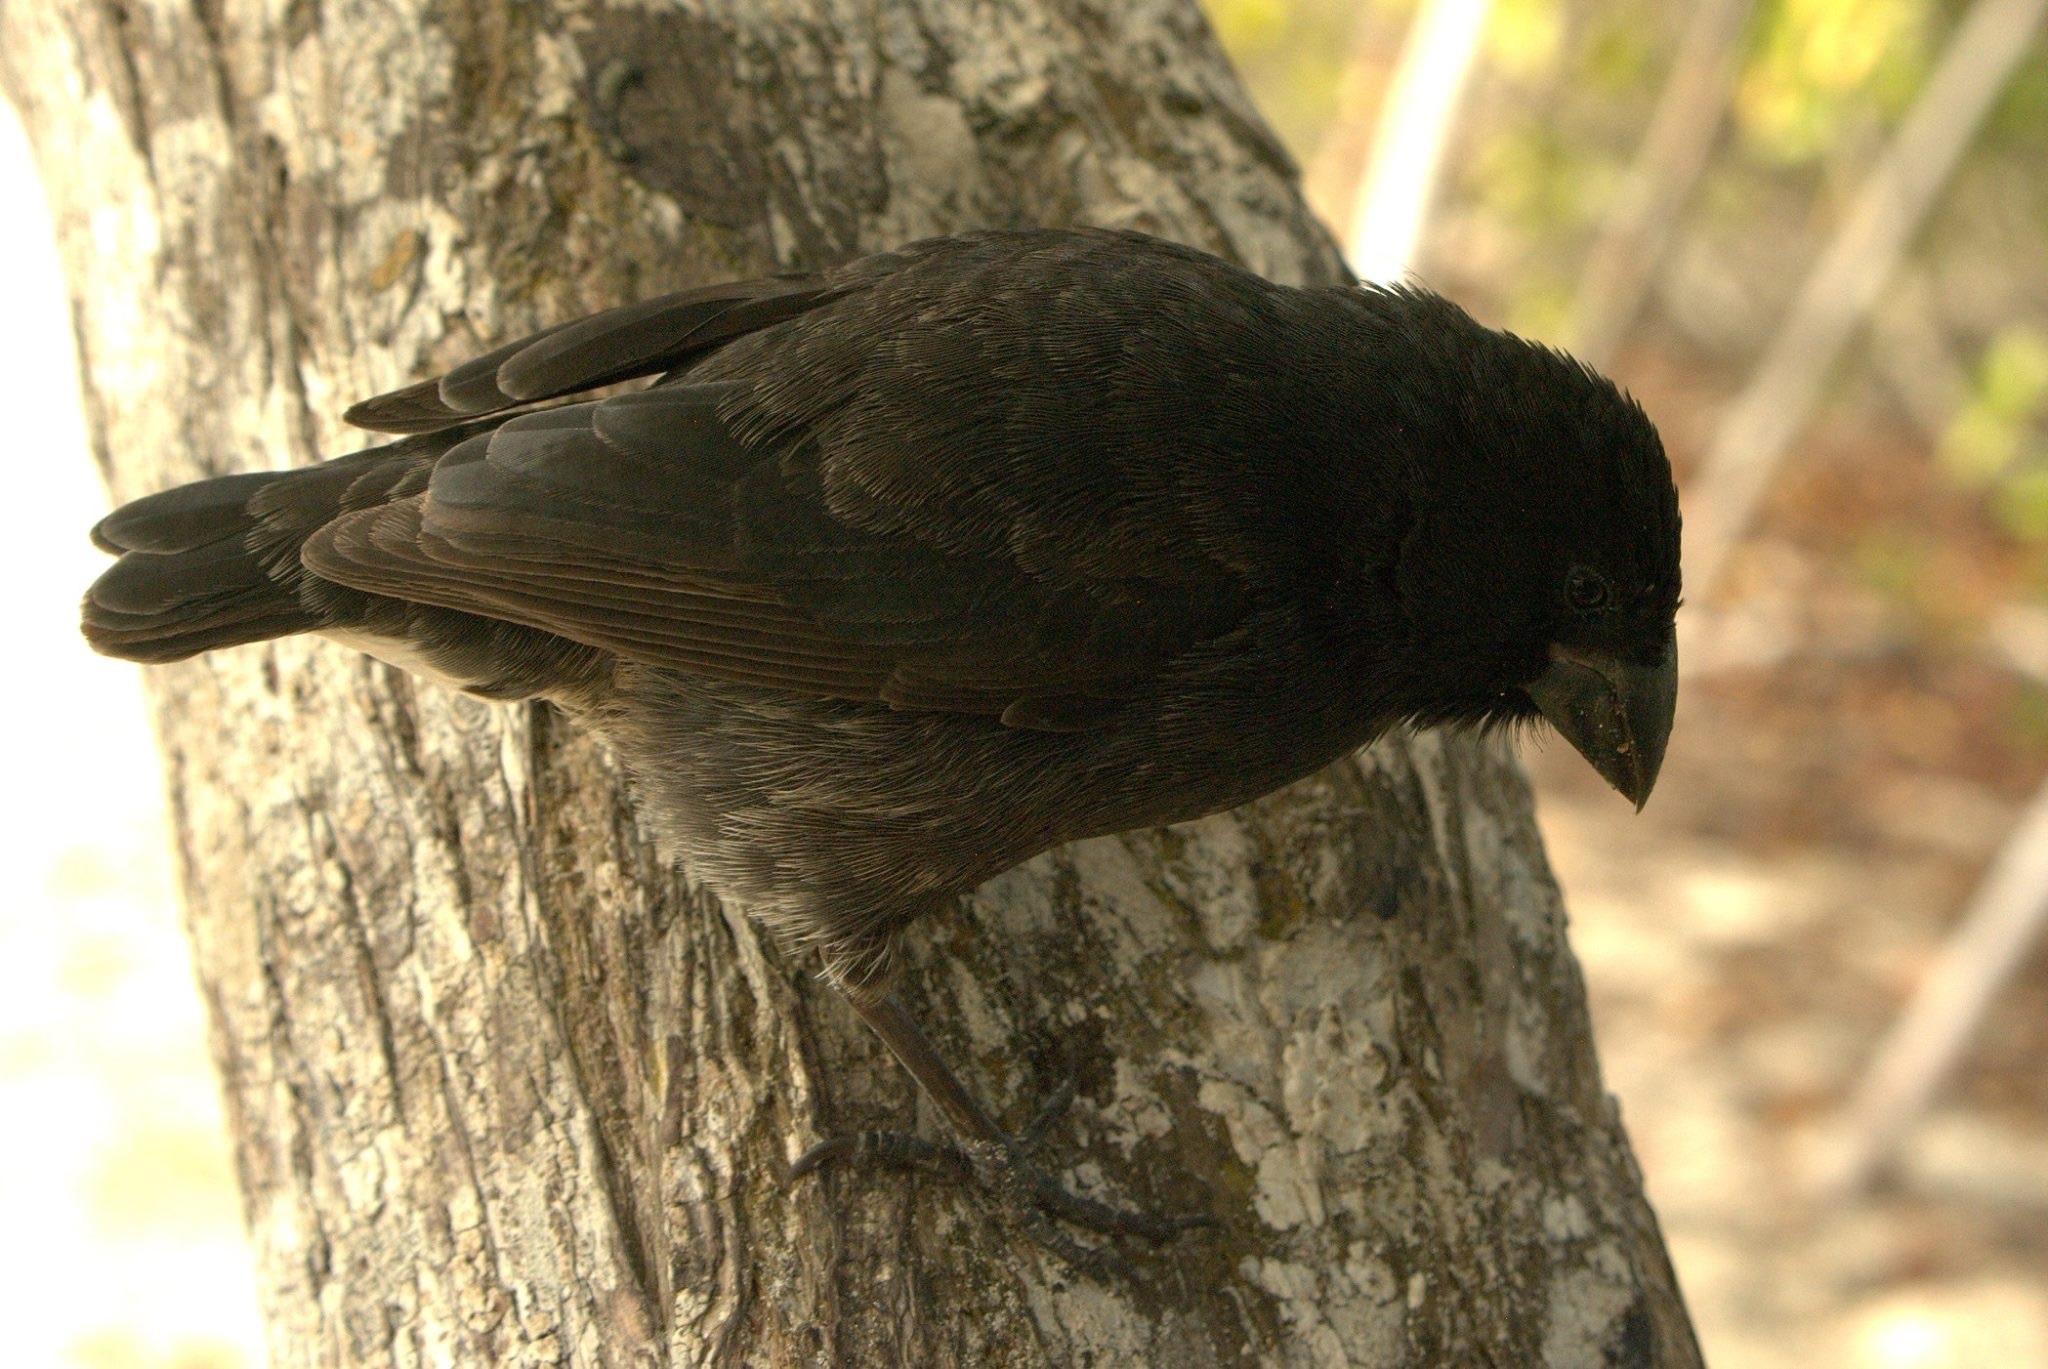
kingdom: Animalia
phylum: Chordata
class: Aves
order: Passeriformes
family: Thraupidae
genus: Geospiza
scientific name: Geospiza fortis
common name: Medium ground finch
